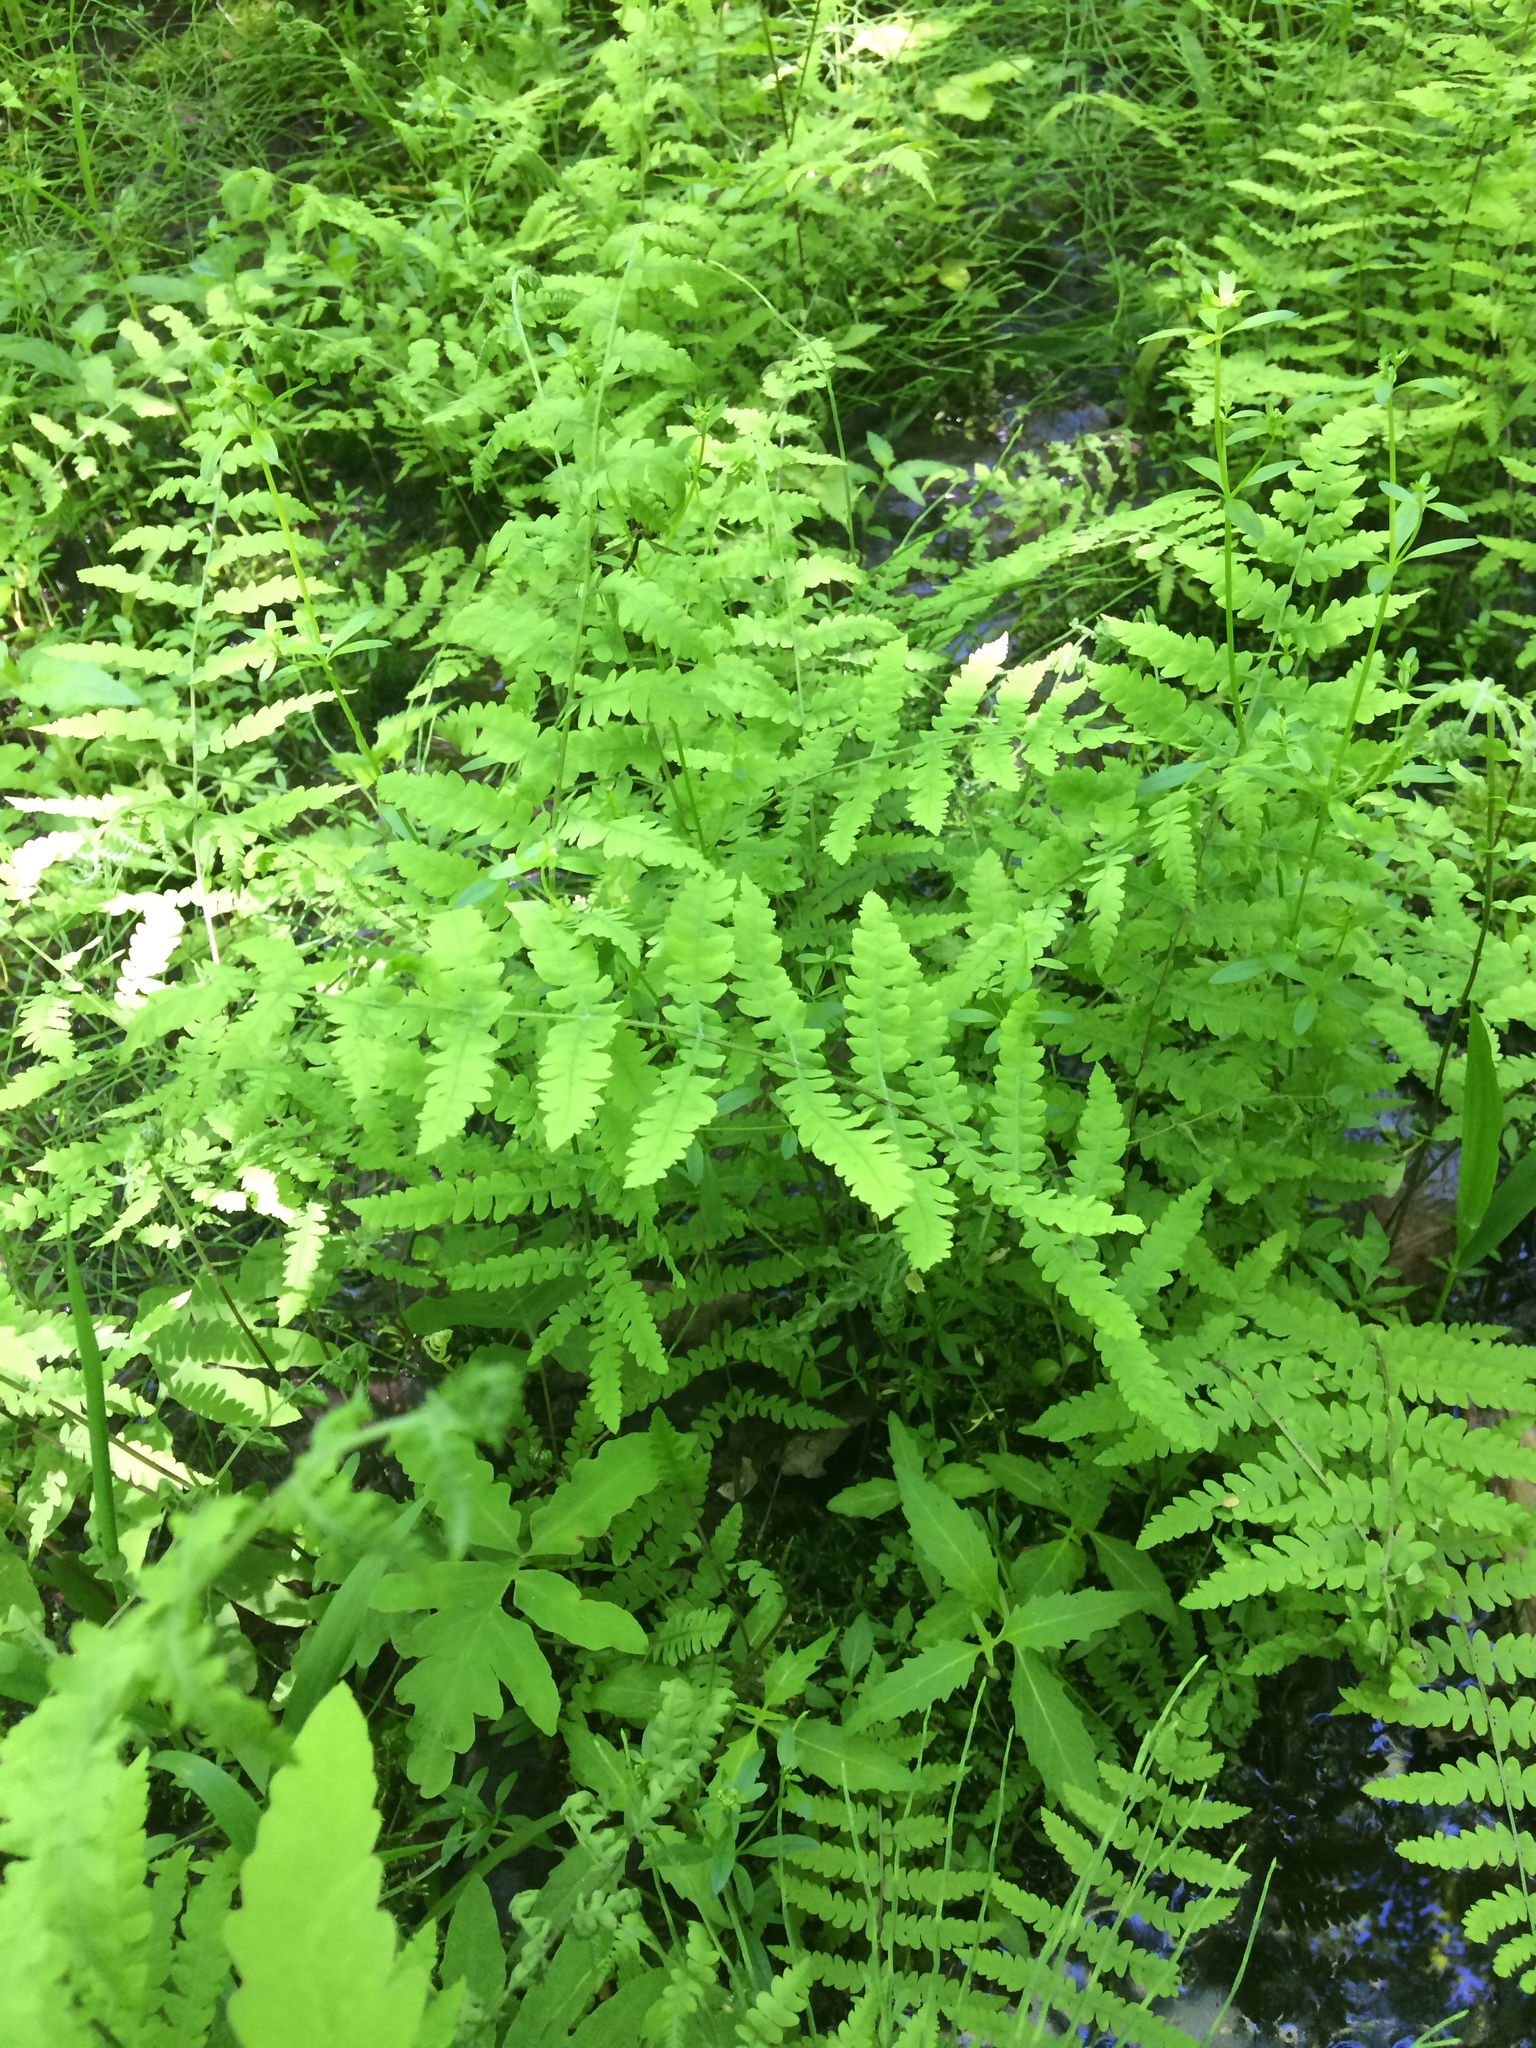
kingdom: Plantae
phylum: Tracheophyta
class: Polypodiopsida
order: Polypodiales
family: Thelypteridaceae
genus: Thelypteris
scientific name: Thelypteris palustris
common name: Marsh fern
